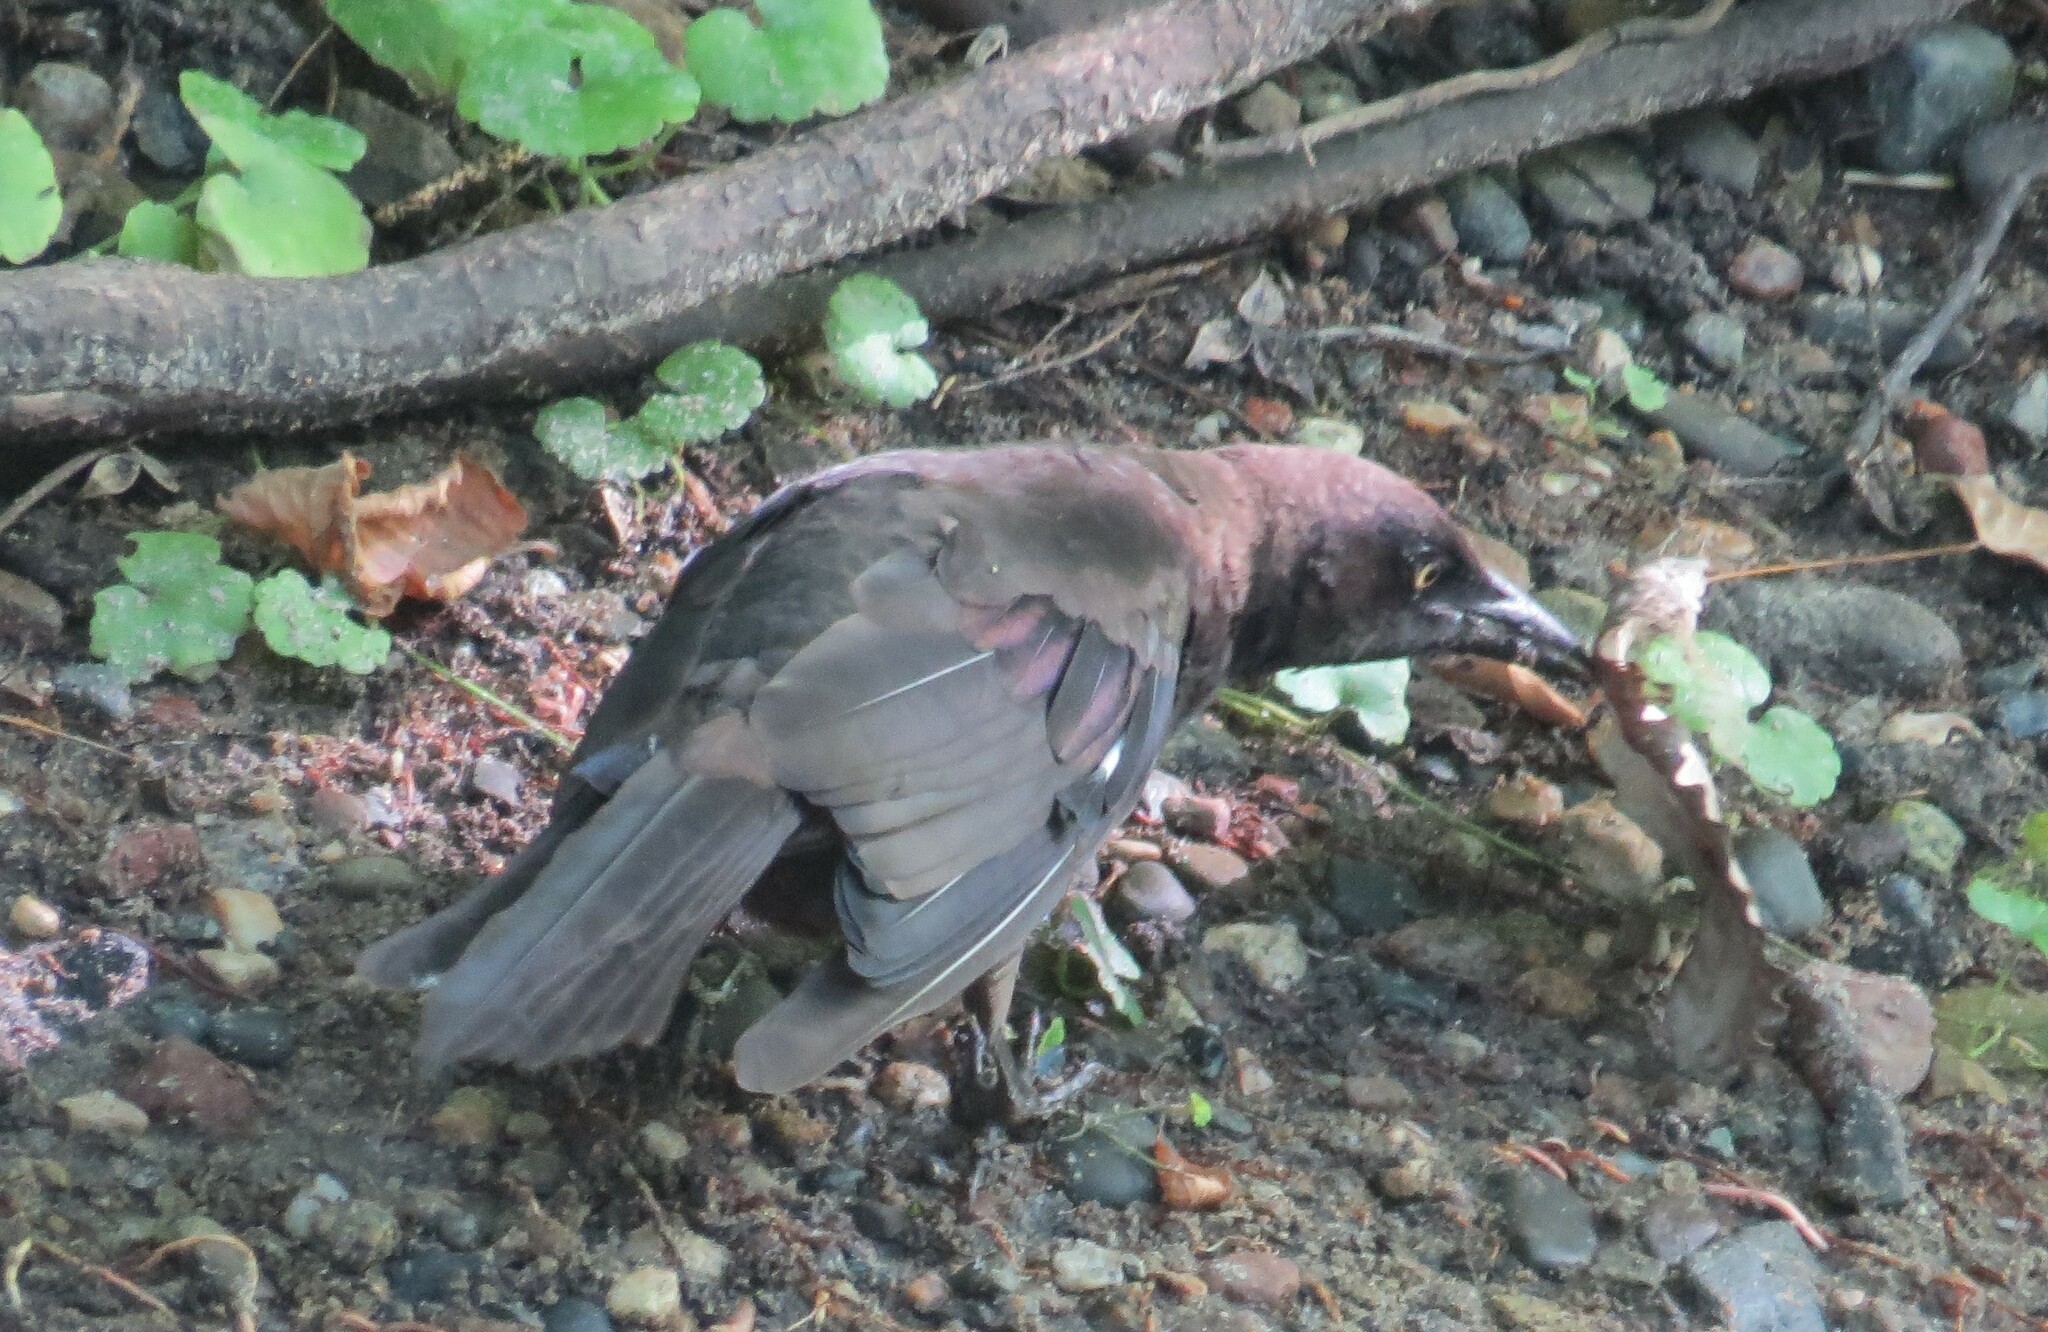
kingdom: Animalia
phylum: Chordata
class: Aves
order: Pelecaniformes
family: Ardeidae
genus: Butorides
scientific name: Butorides virescens
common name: Green heron
